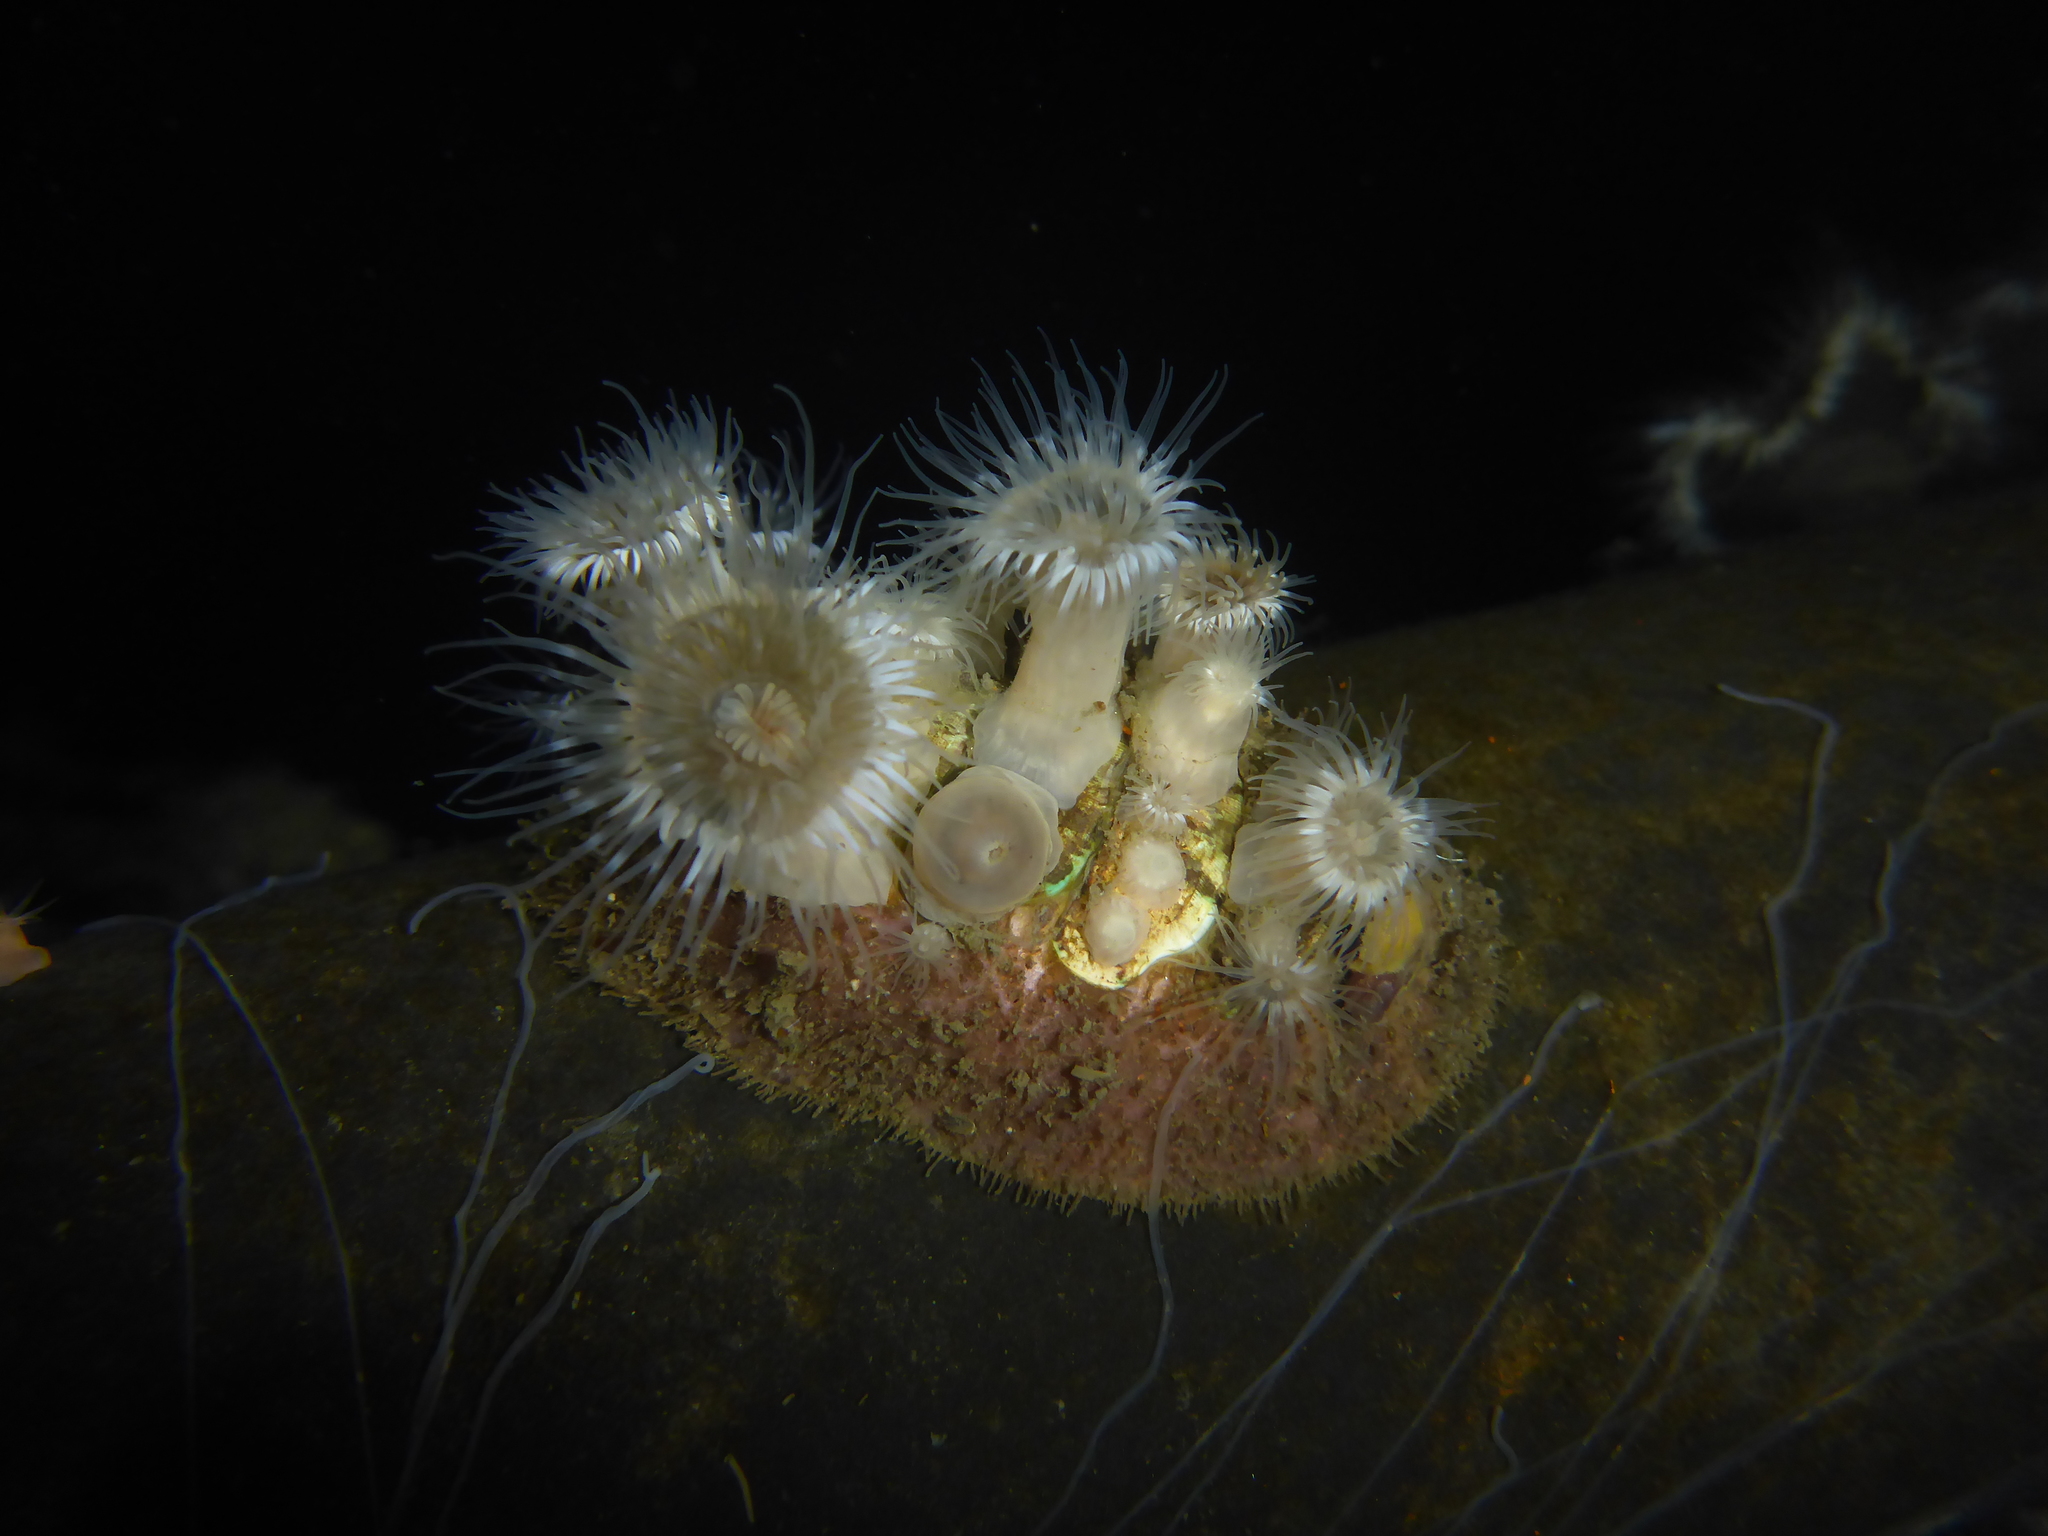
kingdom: Animalia
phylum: Cnidaria
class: Anthozoa
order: Actiniaria
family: Metridiidae
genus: Metridium
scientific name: Metridium senile
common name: Clonal plumose anemone
